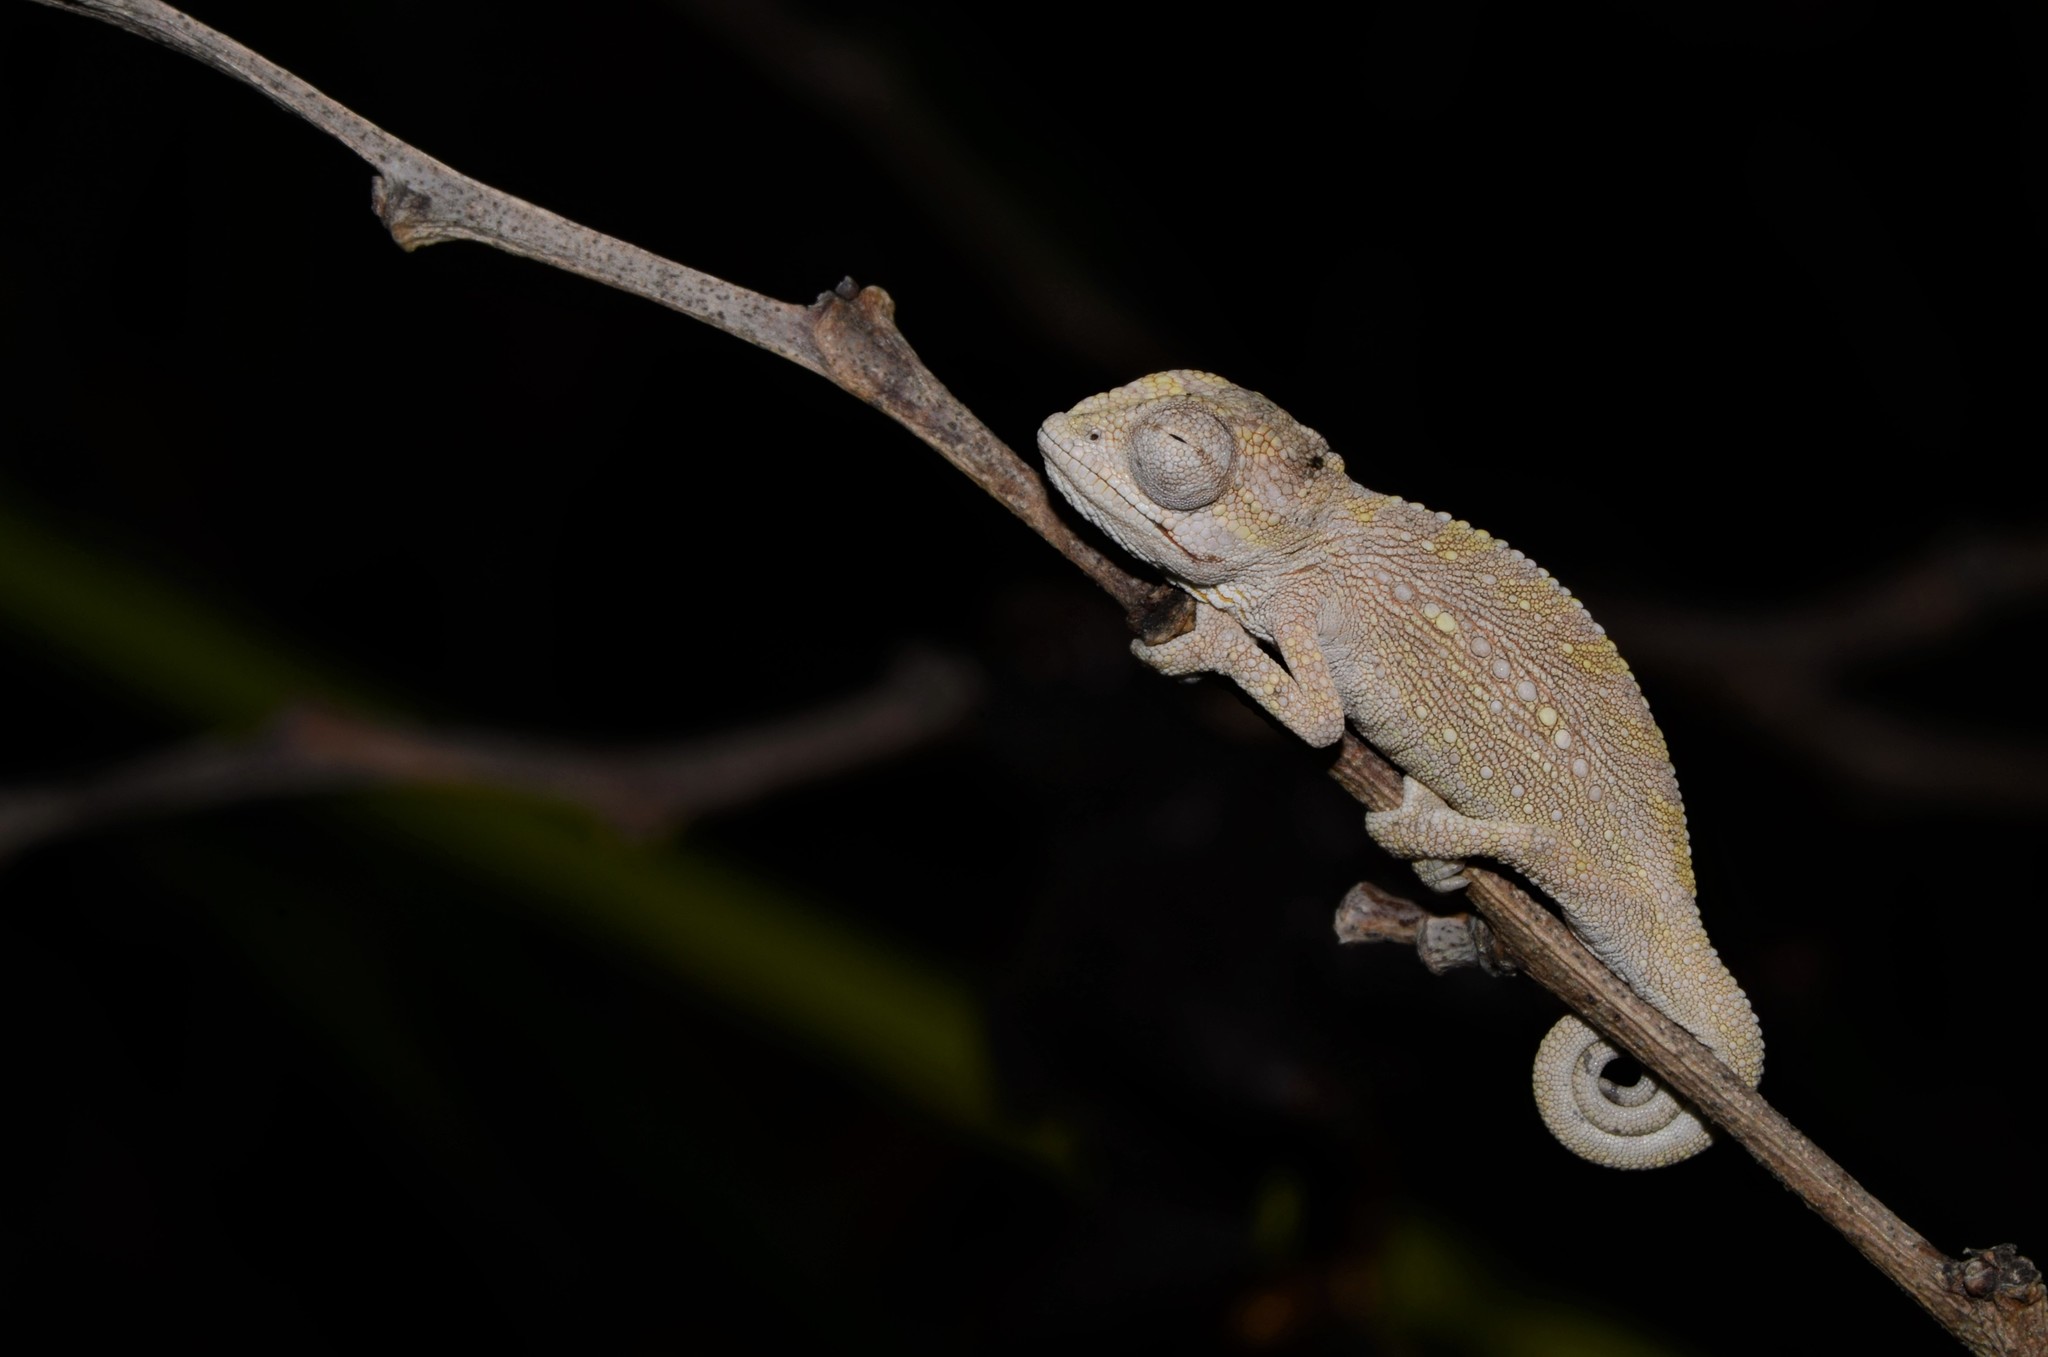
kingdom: Animalia
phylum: Chordata
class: Squamata
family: Chamaeleonidae
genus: Bradypodion
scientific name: Bradypodion pumilum
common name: Cape dwarf chameleon
